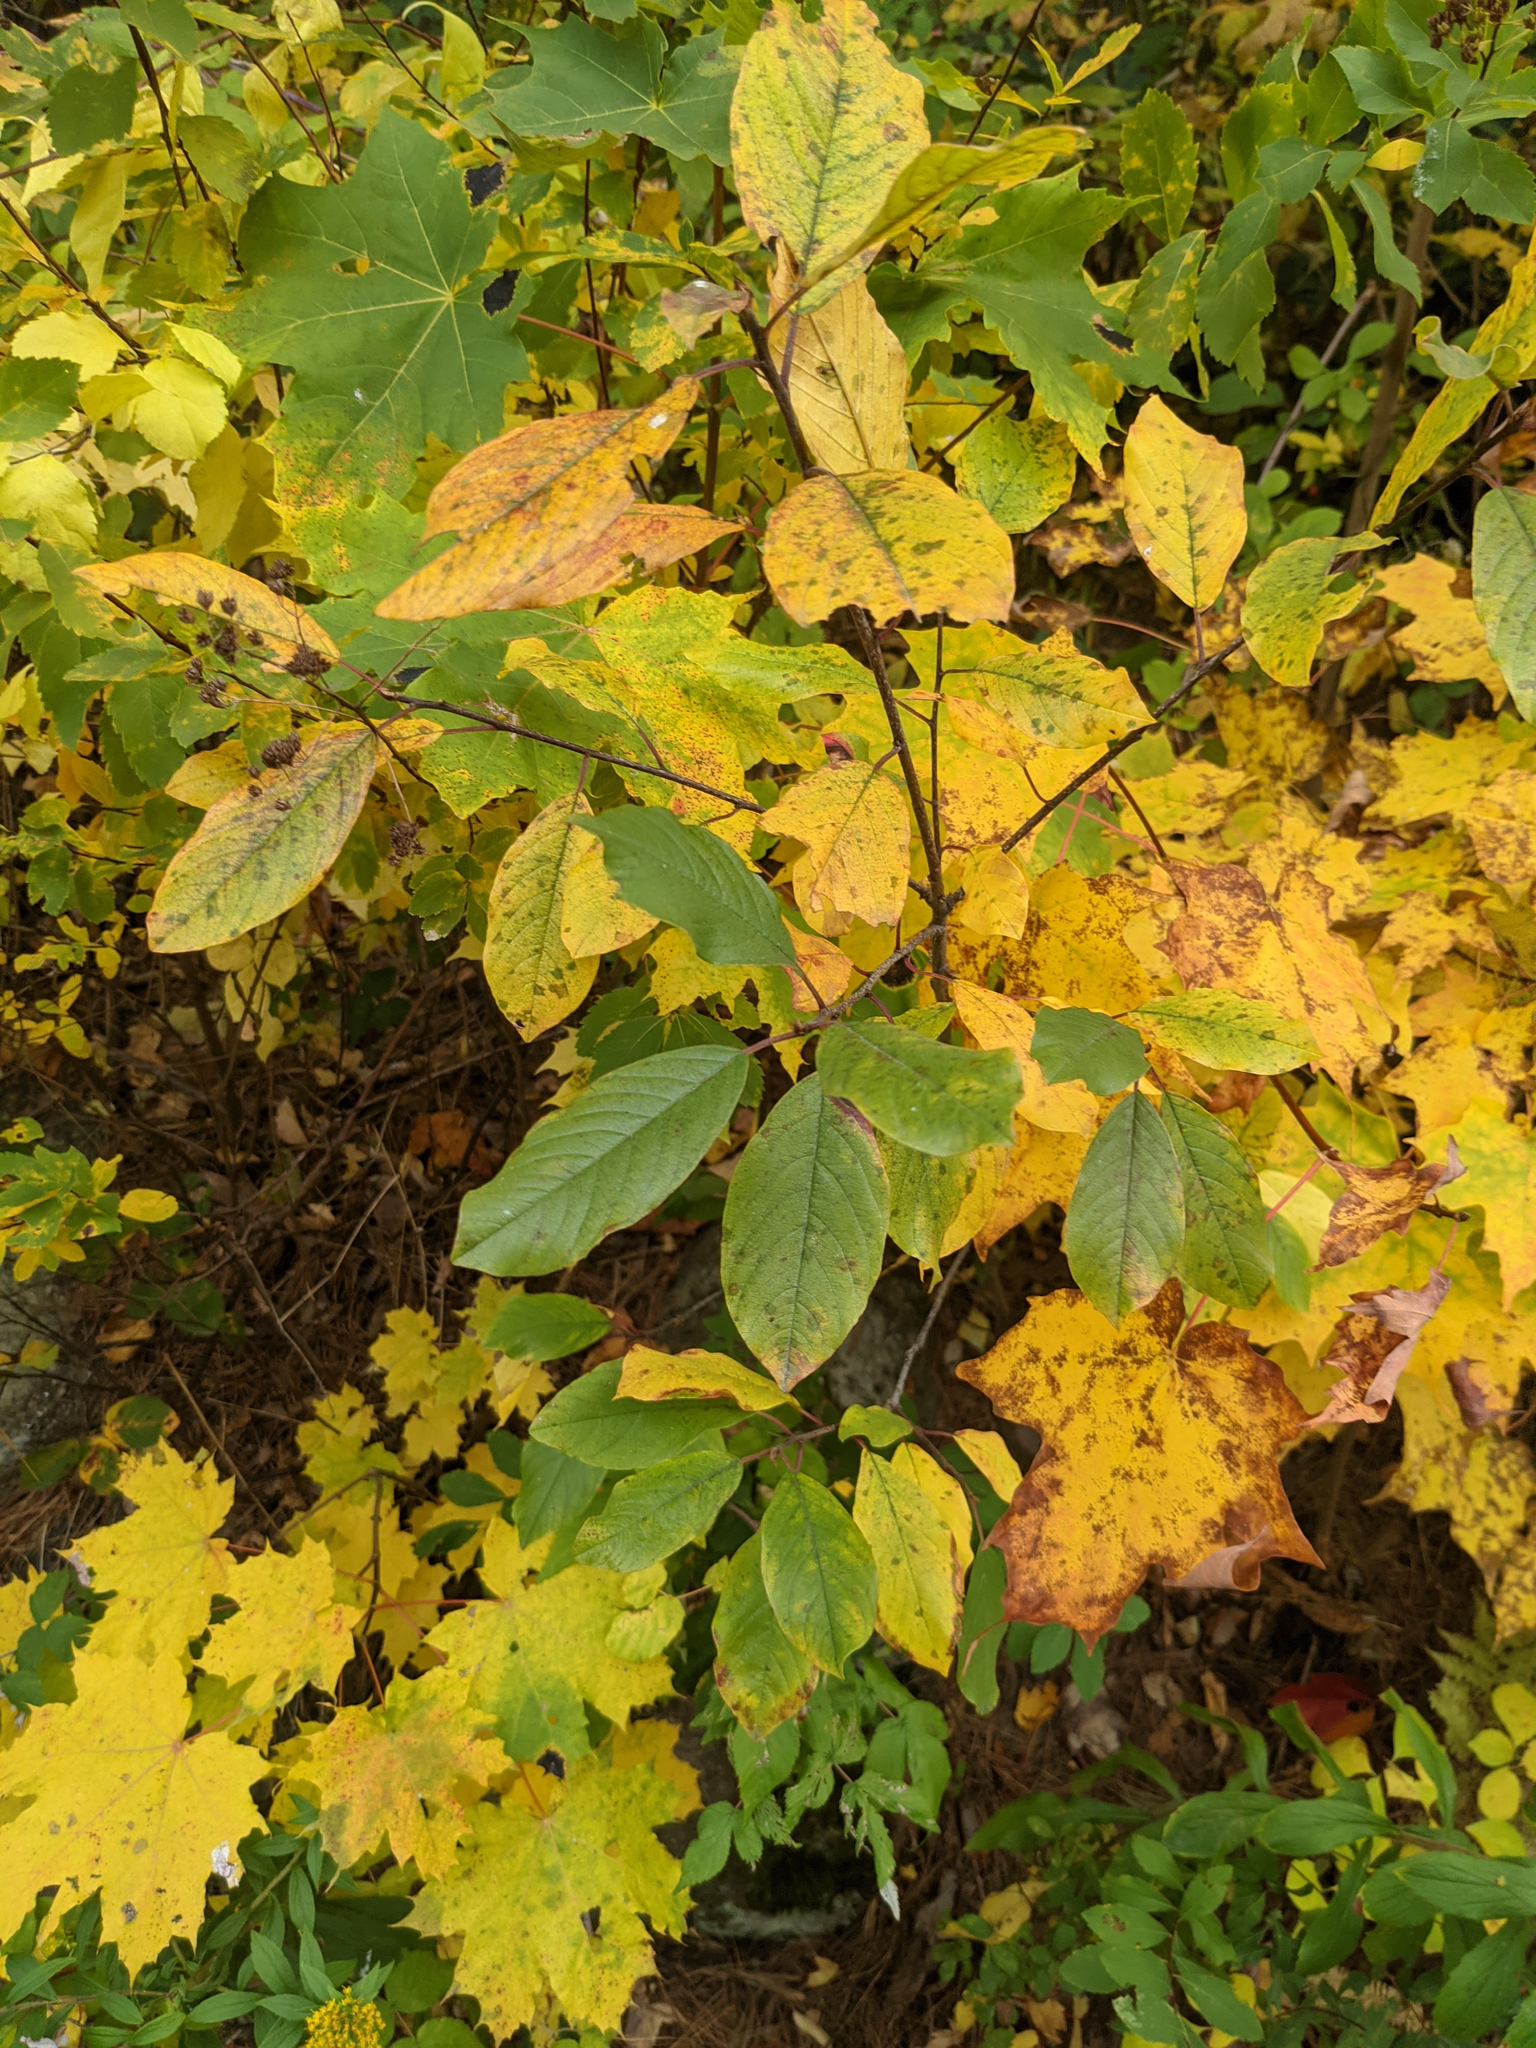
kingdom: Plantae
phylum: Tracheophyta
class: Magnoliopsida
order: Rosales
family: Rhamnaceae
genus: Frangula
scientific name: Frangula alnus
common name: Alder buckthorn
